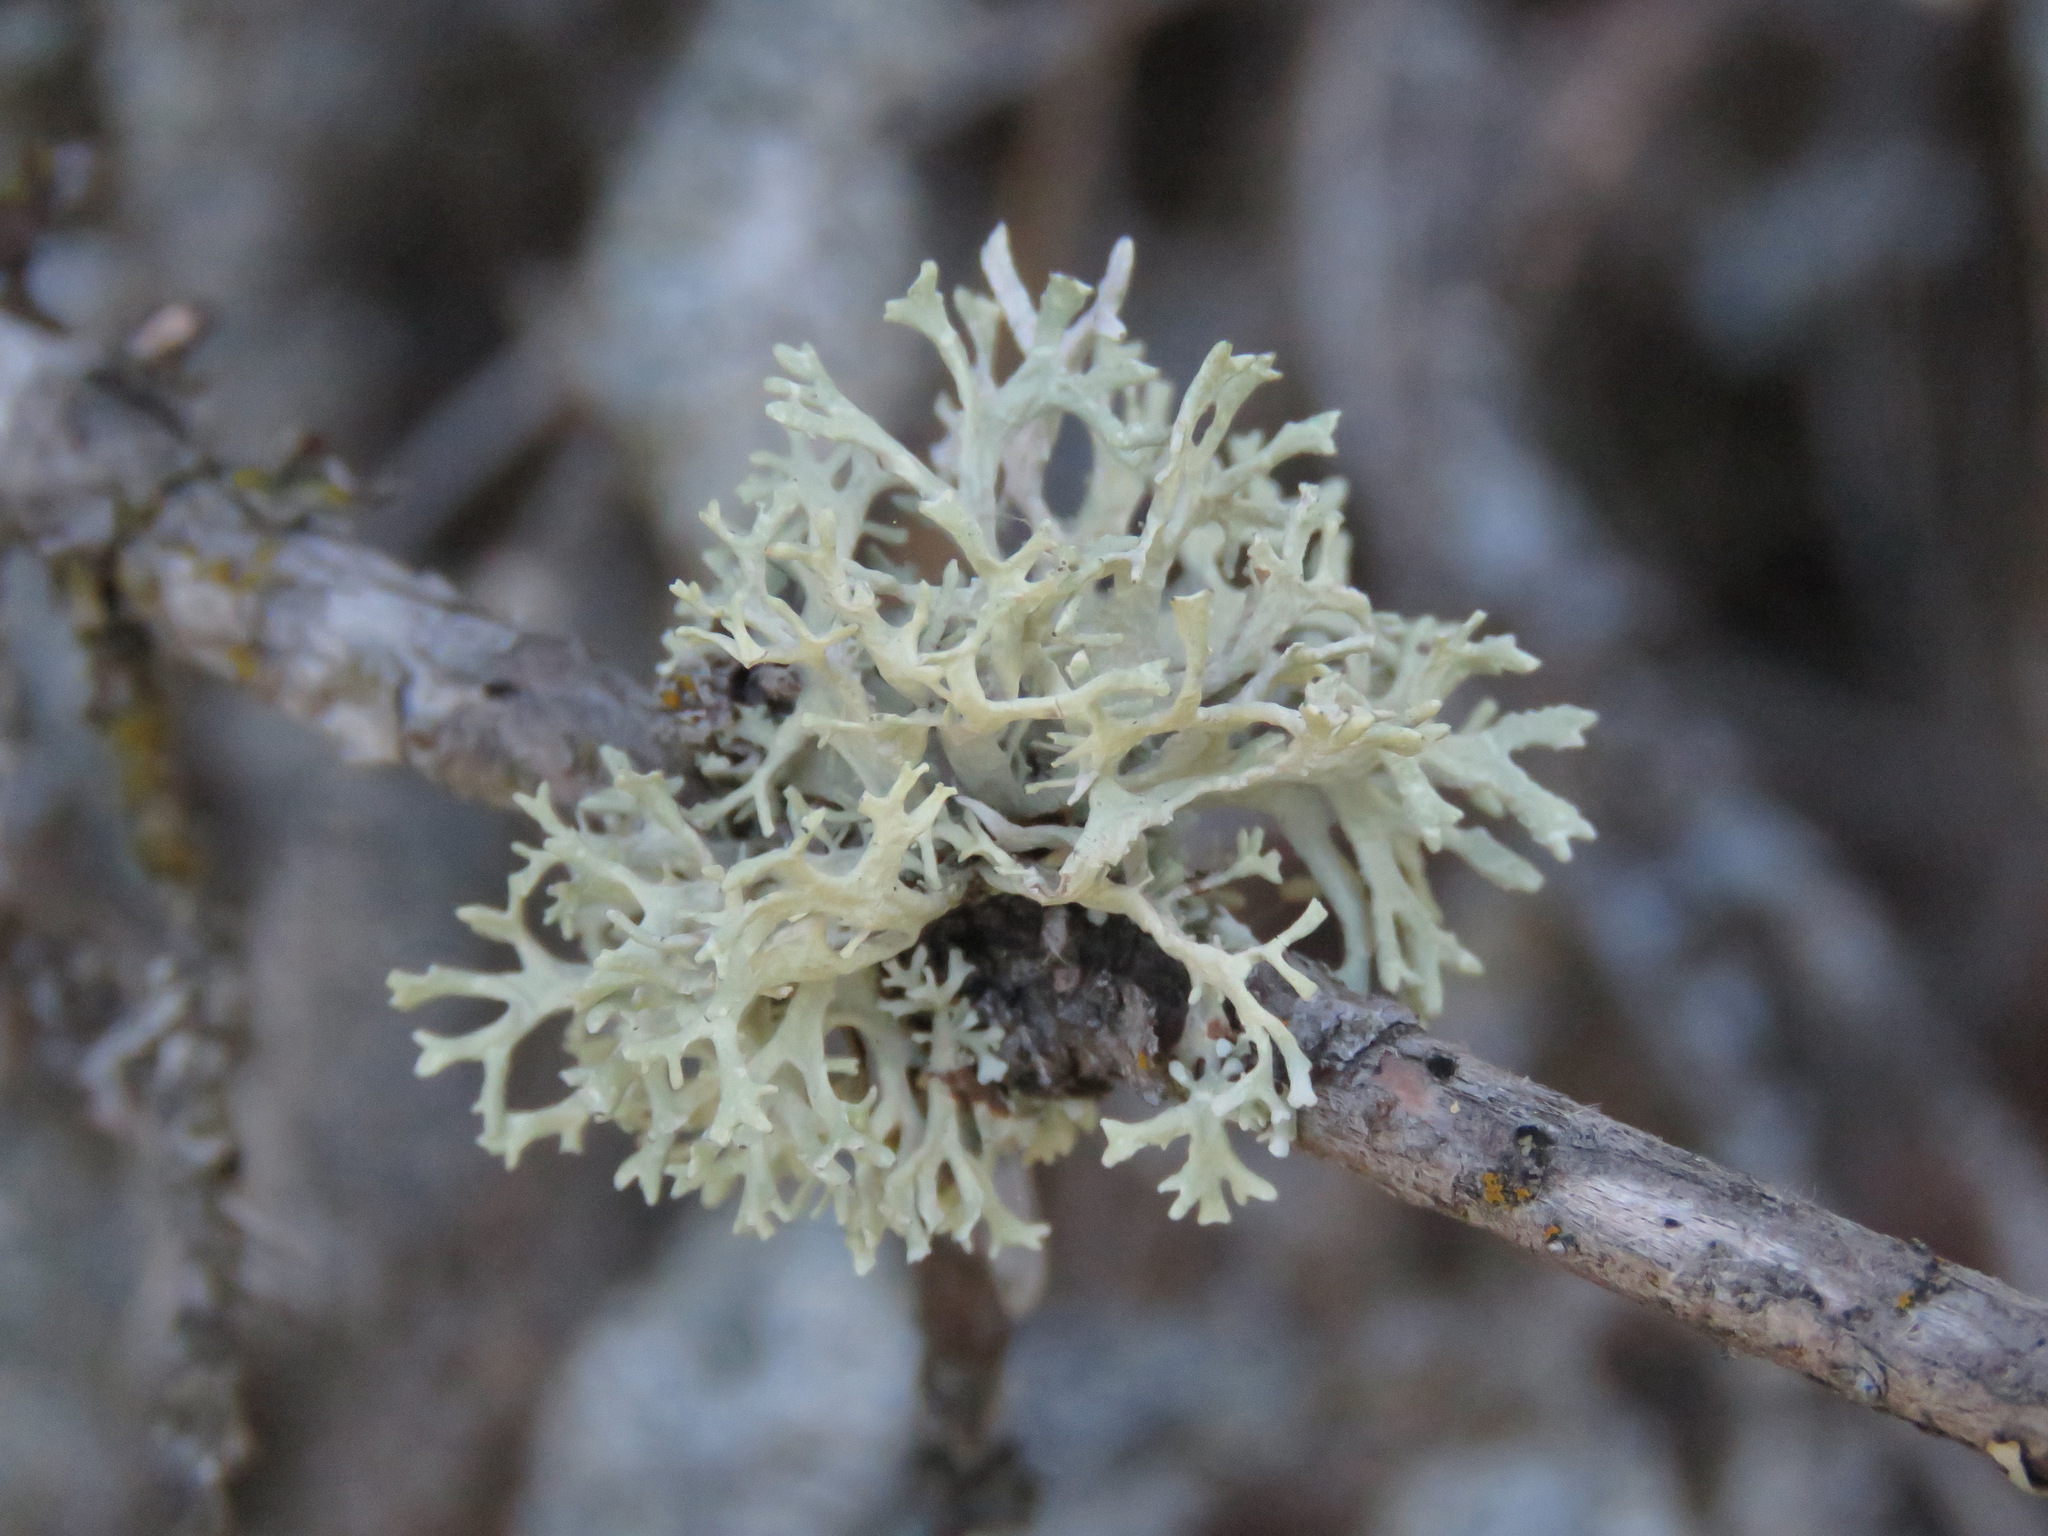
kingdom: Fungi
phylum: Ascomycota
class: Lecanoromycetes
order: Lecanorales
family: Parmeliaceae
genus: Evernia
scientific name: Evernia prunastri
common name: Oak moss
